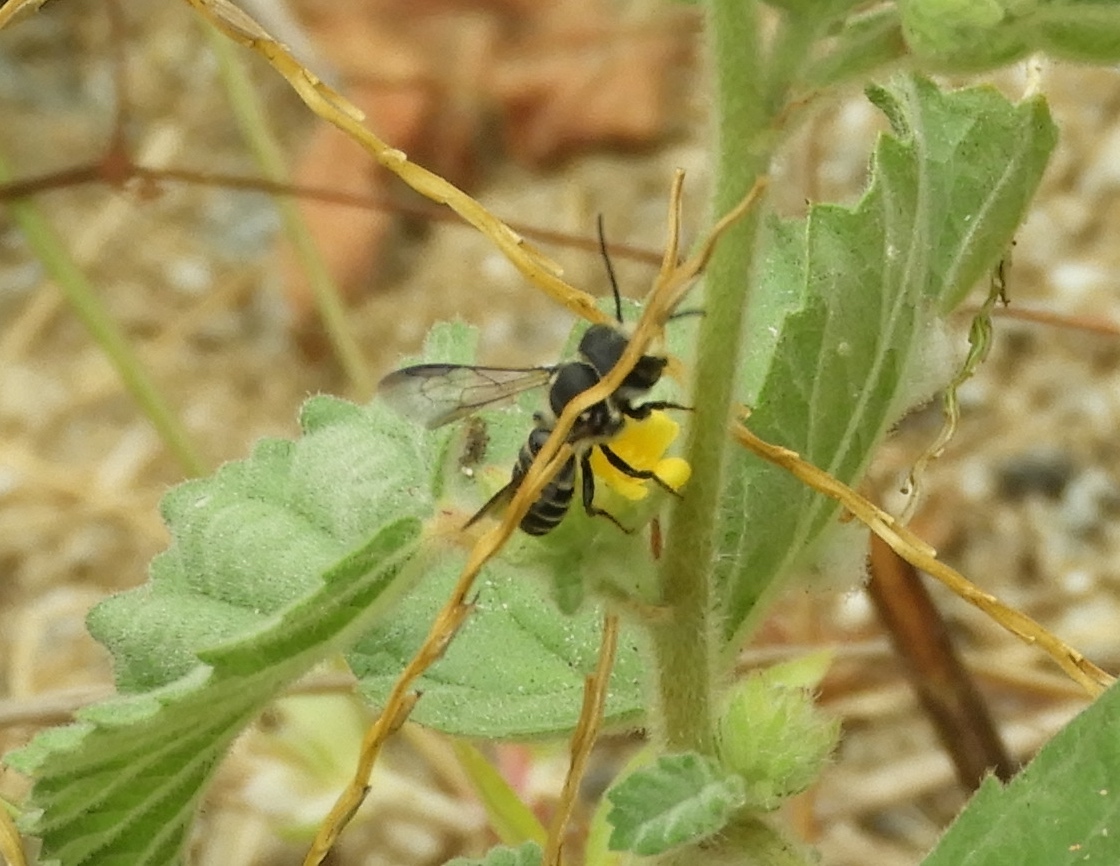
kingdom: Animalia
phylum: Arthropoda
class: Insecta
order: Hymenoptera
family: Megachilidae
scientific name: Megachilidae
